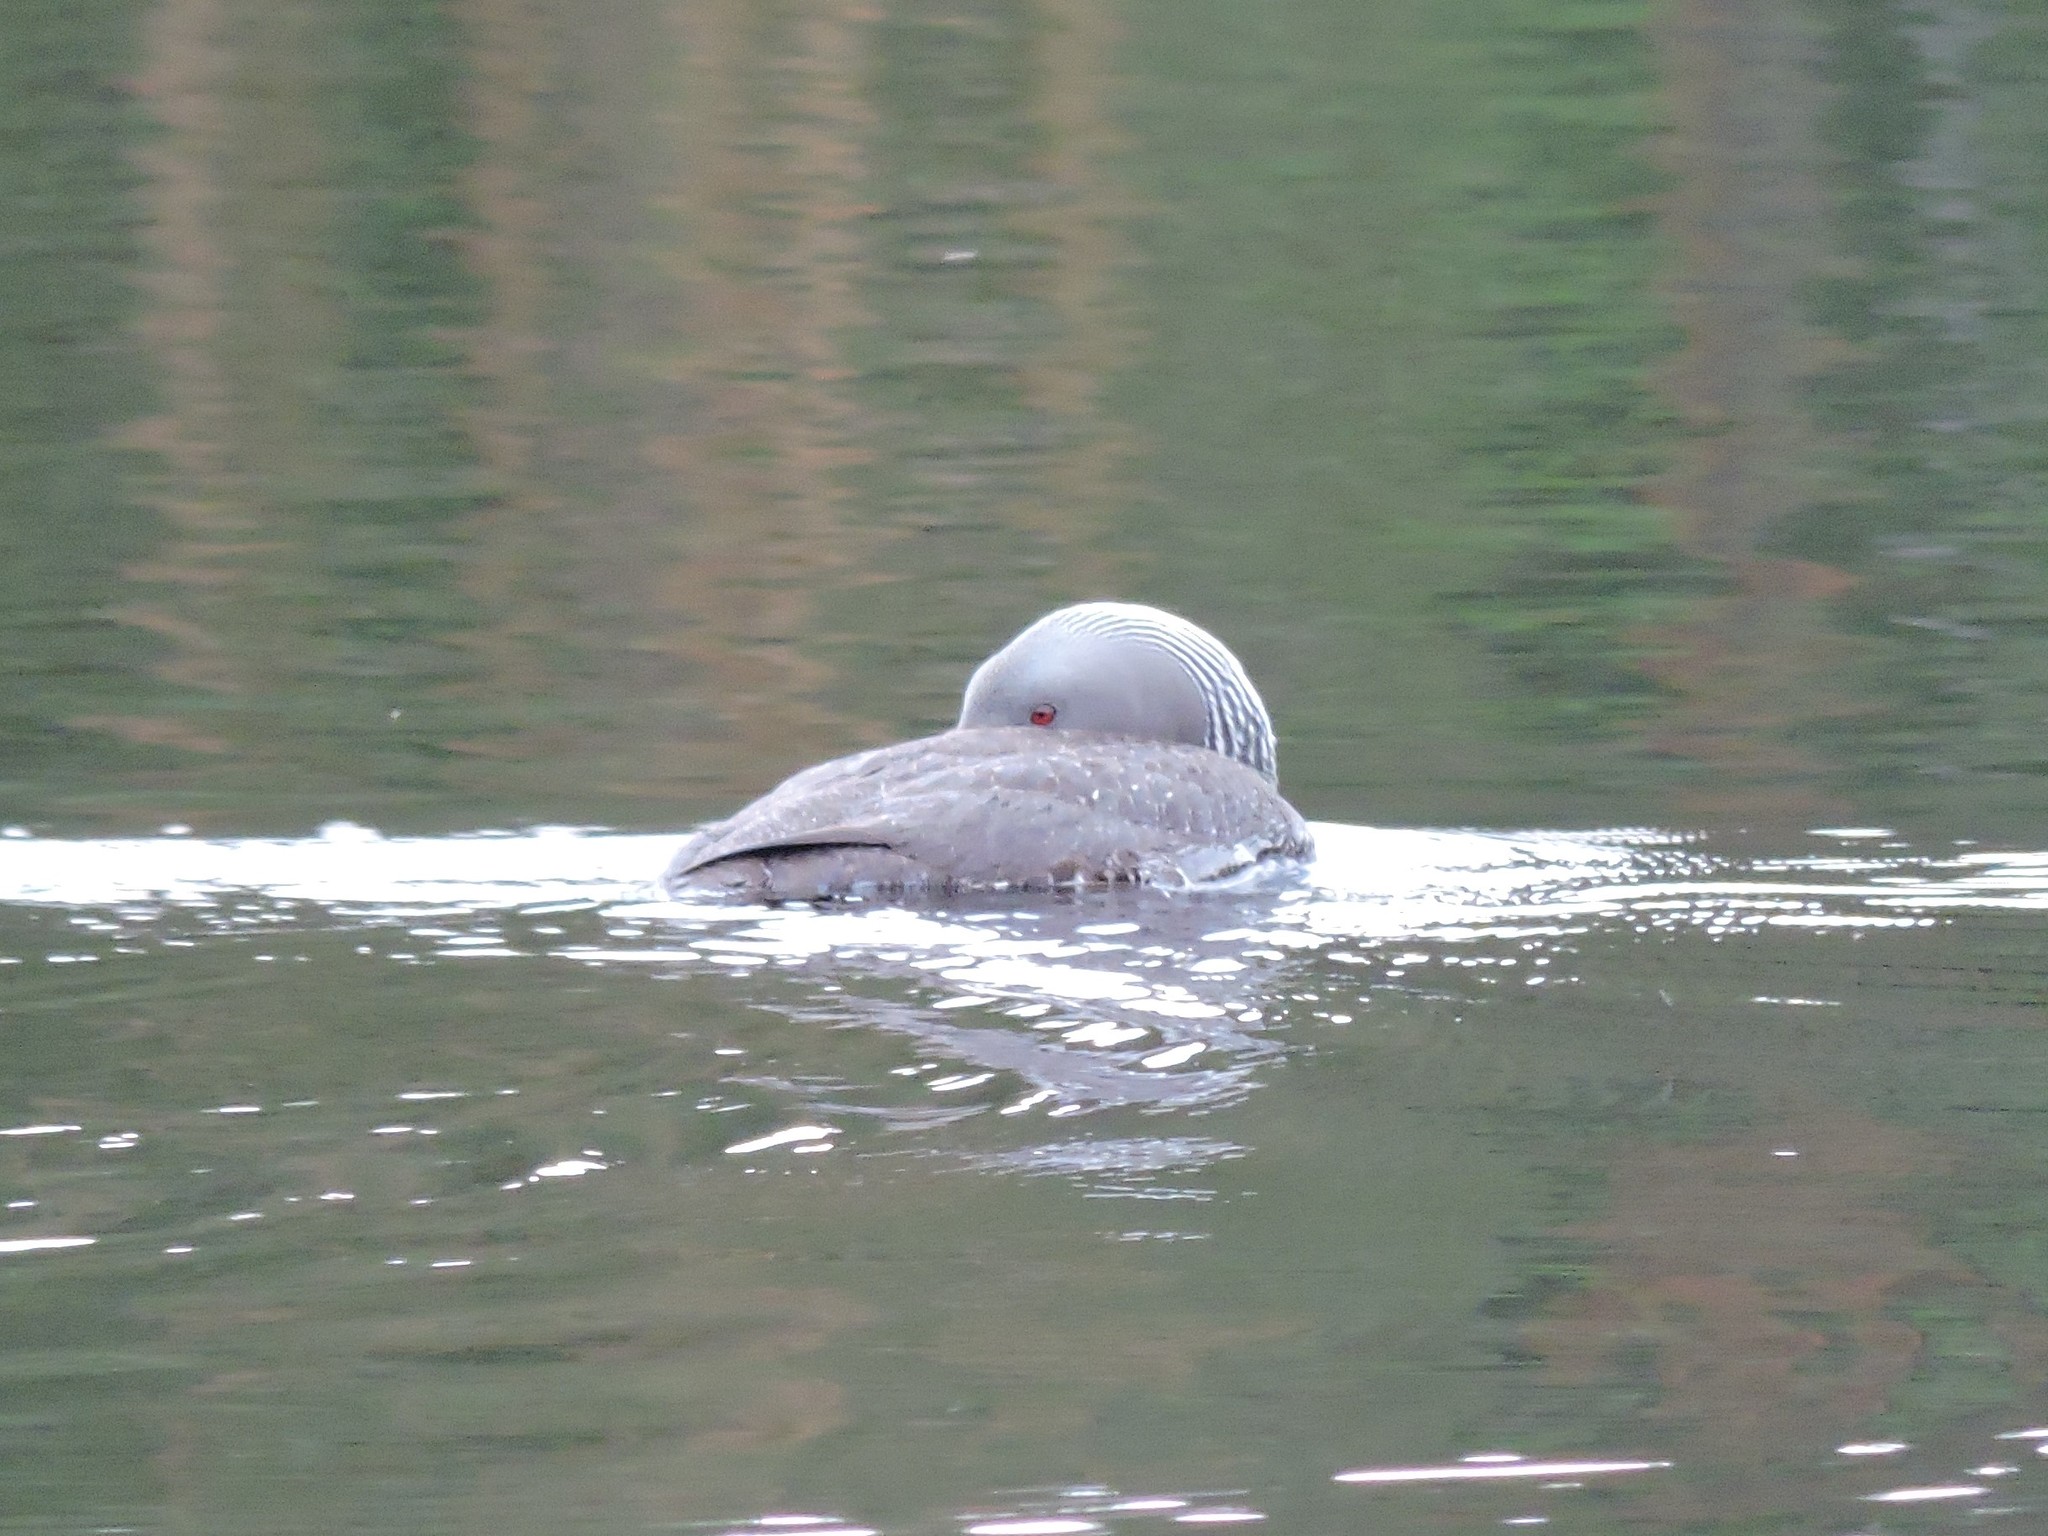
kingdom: Animalia
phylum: Chordata
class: Aves
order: Gaviiformes
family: Gaviidae
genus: Gavia
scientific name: Gavia stellata
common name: Red-throated loon
